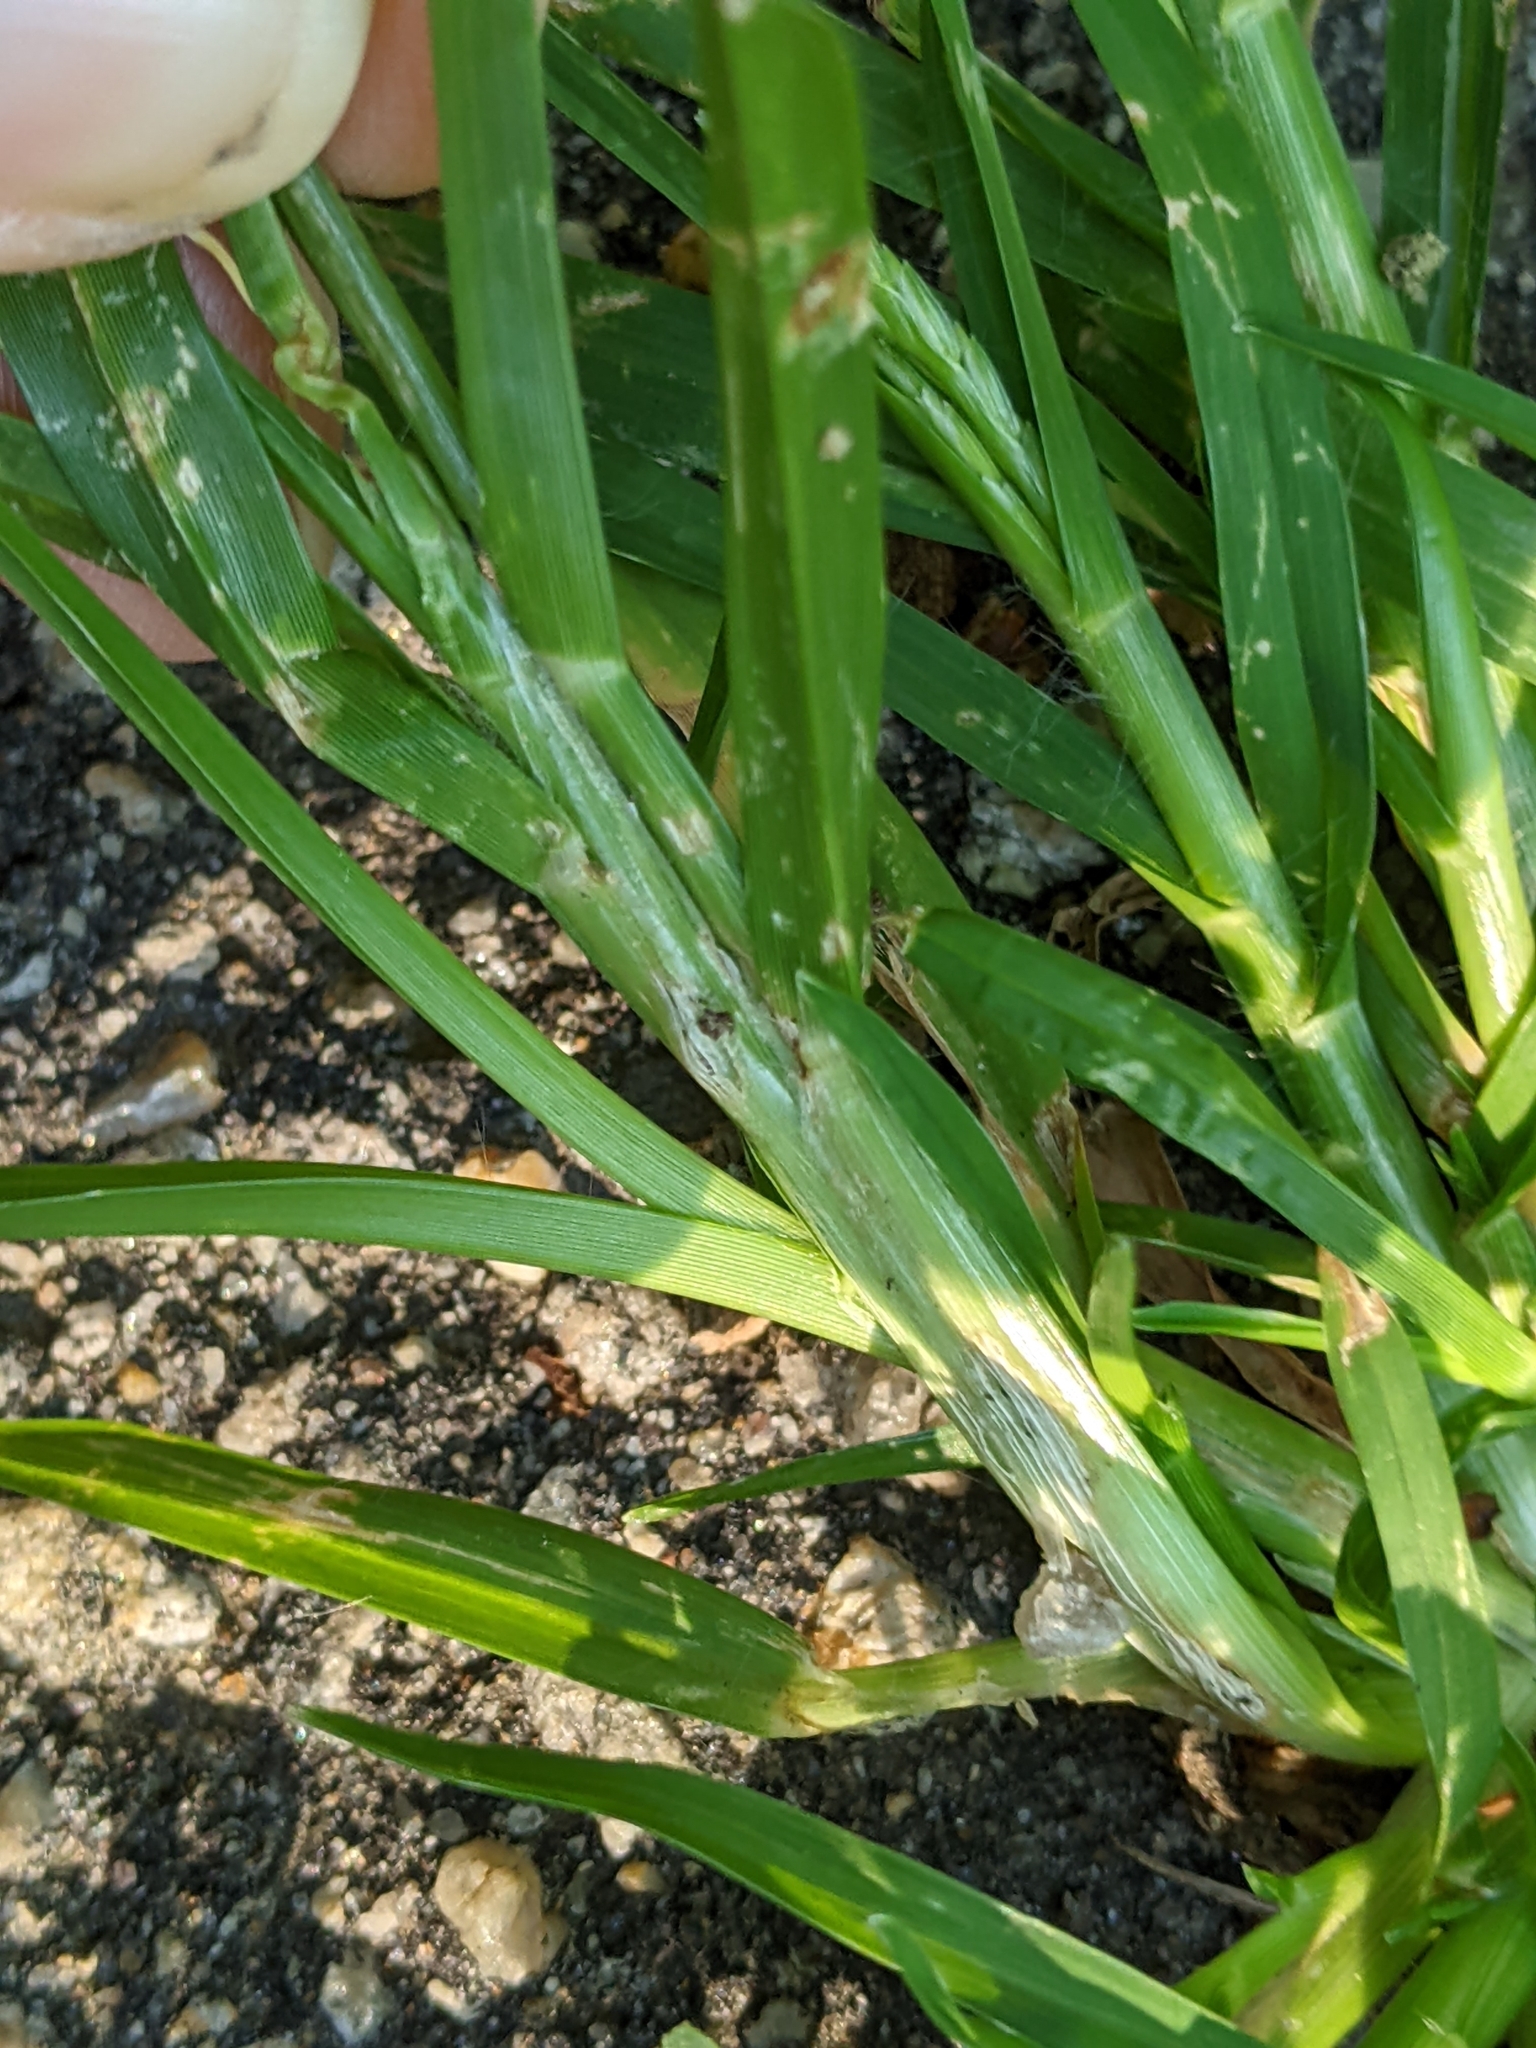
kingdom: Plantae
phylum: Tracheophyta
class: Liliopsida
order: Poales
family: Poaceae
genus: Eleusine
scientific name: Eleusine indica
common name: Yard-grass
